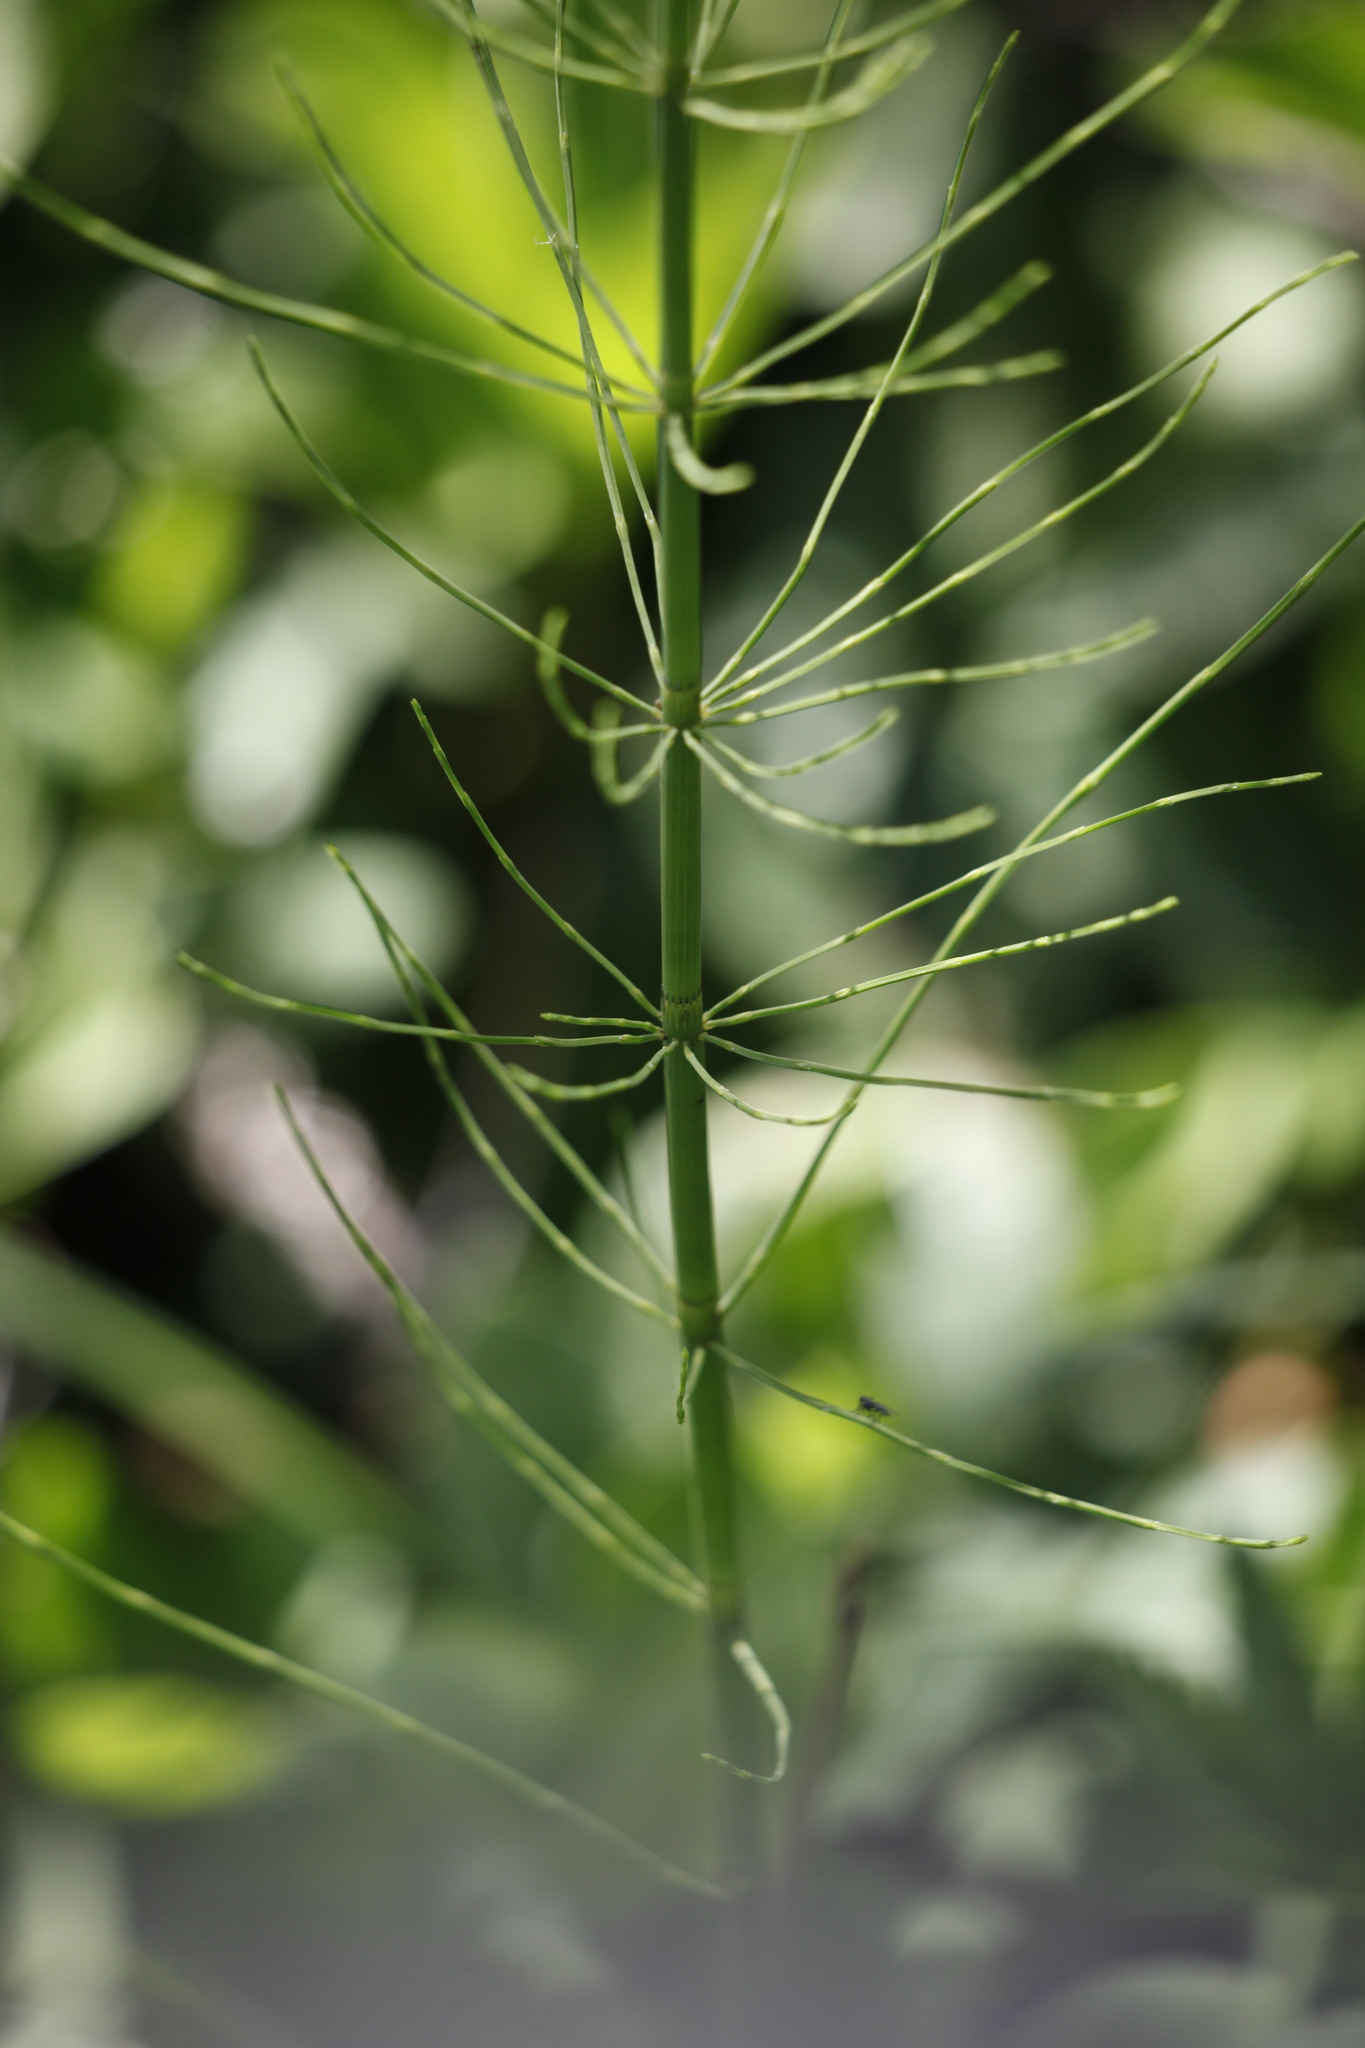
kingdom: Plantae
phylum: Tracheophyta
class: Polypodiopsida
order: Equisetales
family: Equisetaceae
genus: Equisetum
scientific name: Equisetum fluviatile
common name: Water horsetail
